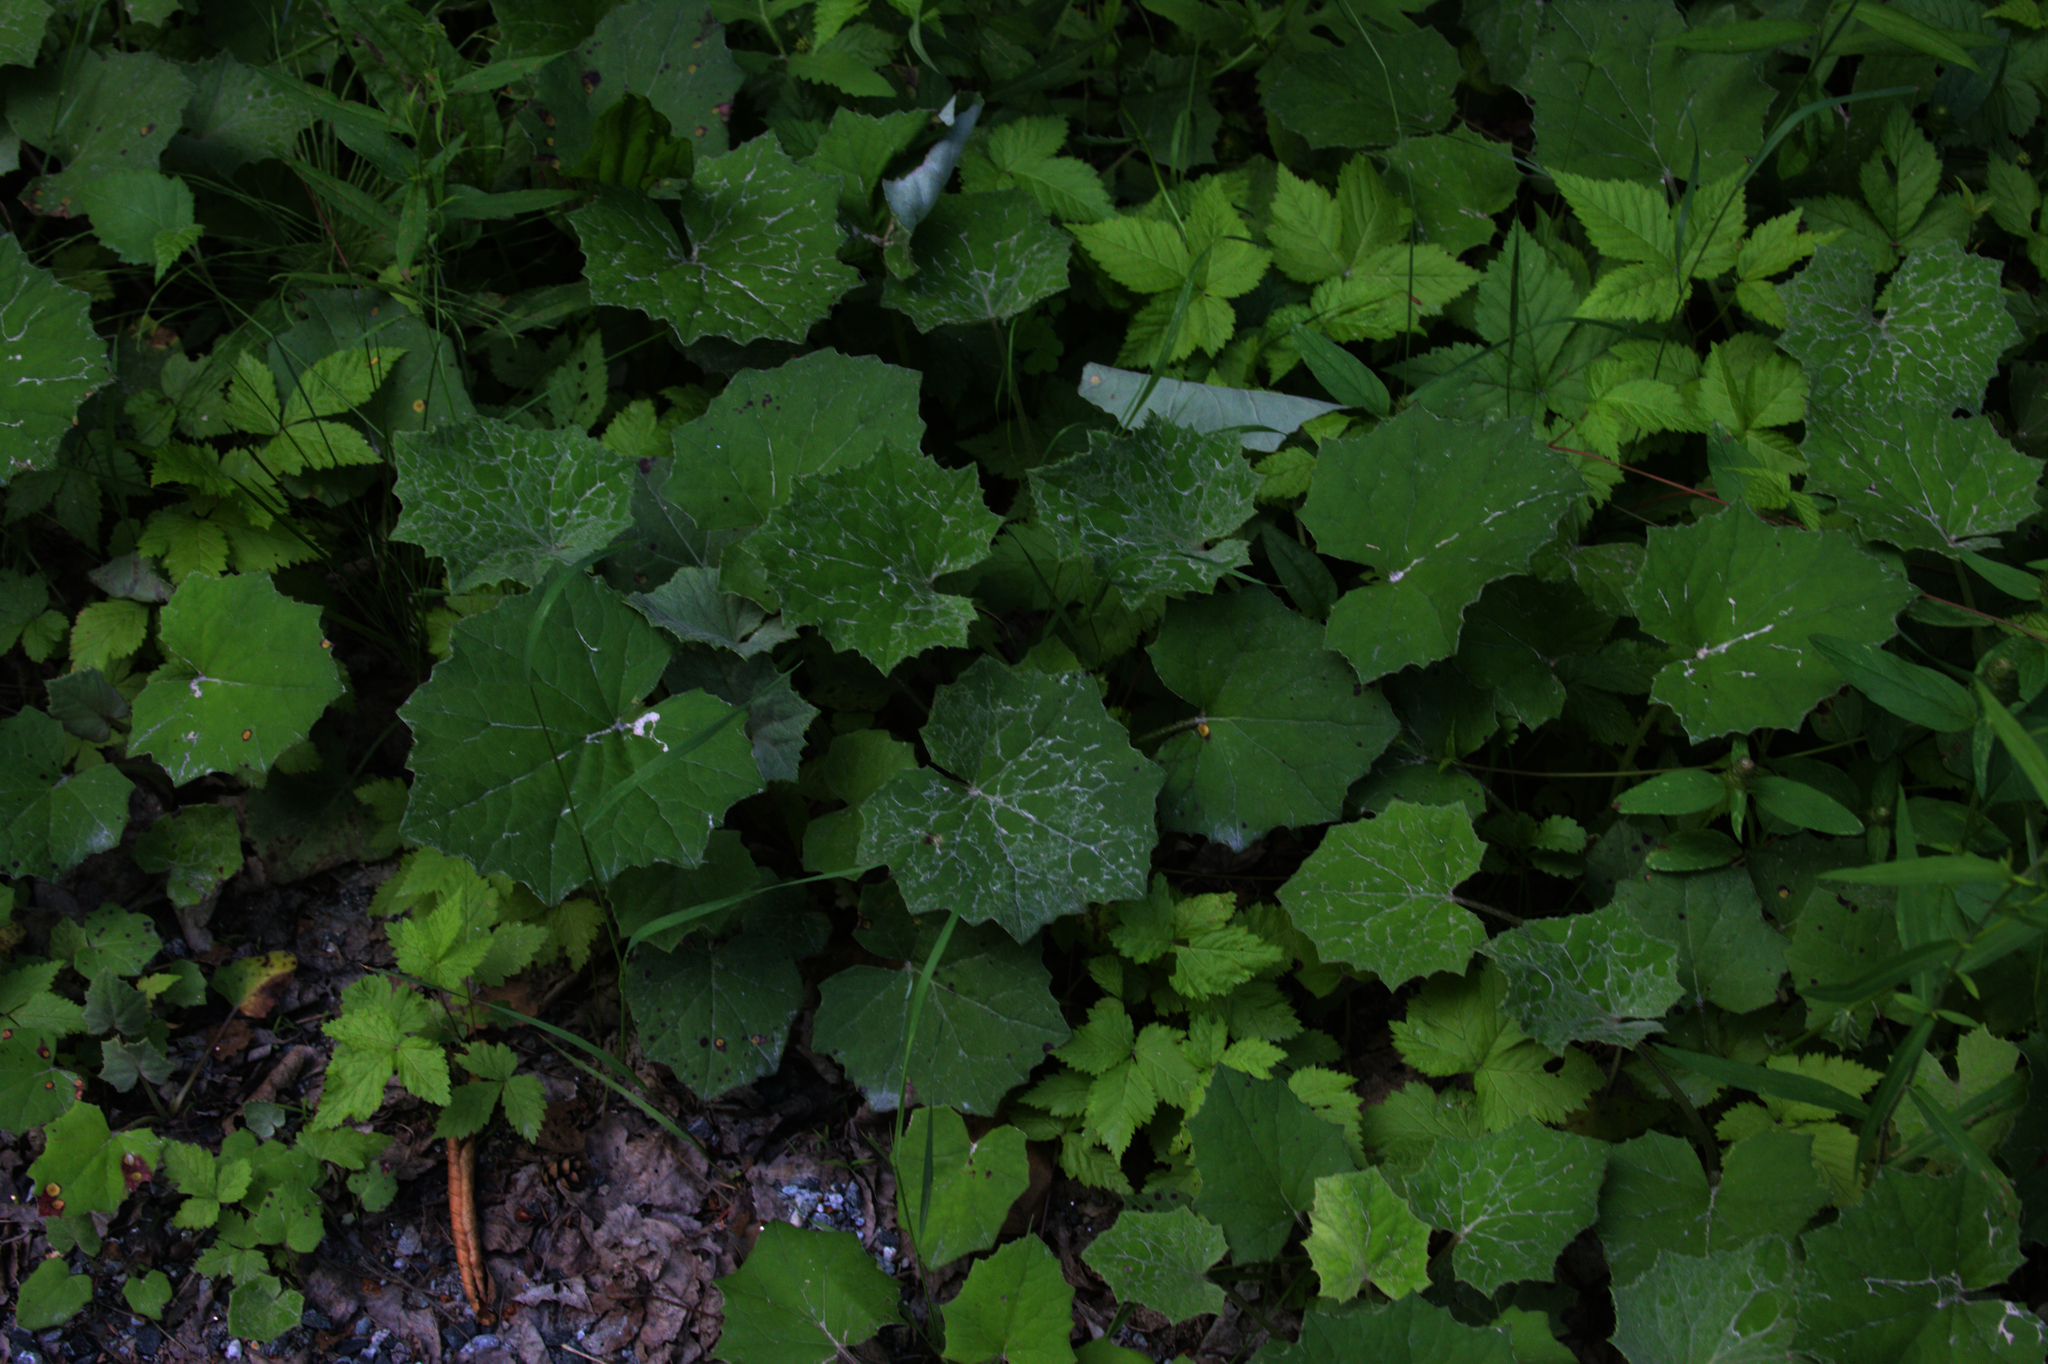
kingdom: Plantae
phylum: Tracheophyta
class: Magnoliopsida
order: Asterales
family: Asteraceae
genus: Tussilago
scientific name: Tussilago farfara
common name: Coltsfoot
